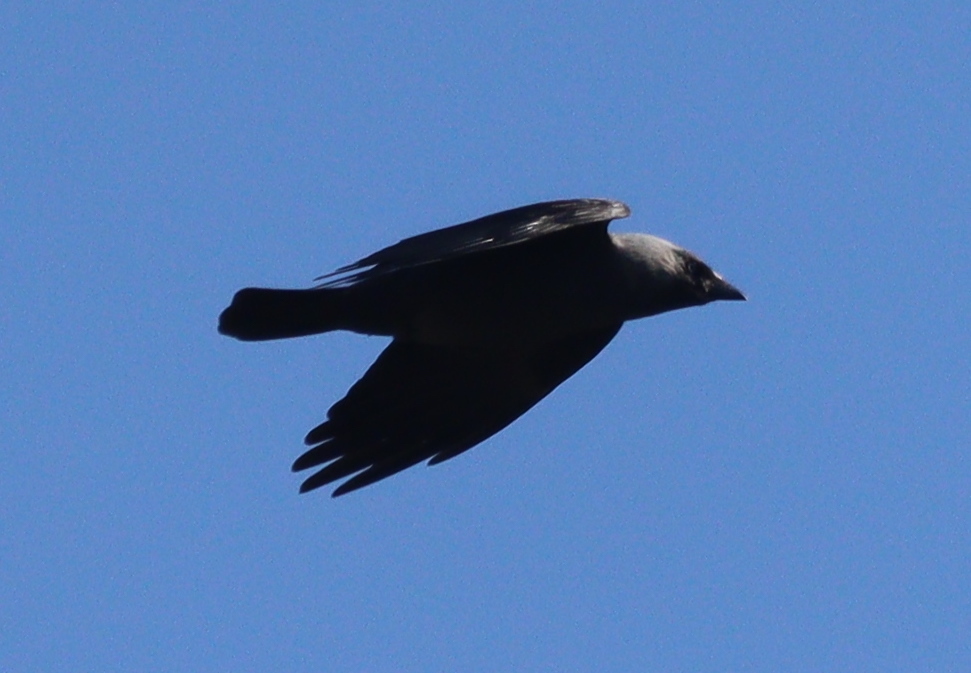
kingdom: Animalia
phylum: Chordata
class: Aves
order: Passeriformes
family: Corvidae
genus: Coloeus
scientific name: Coloeus monedula
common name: Western jackdaw
